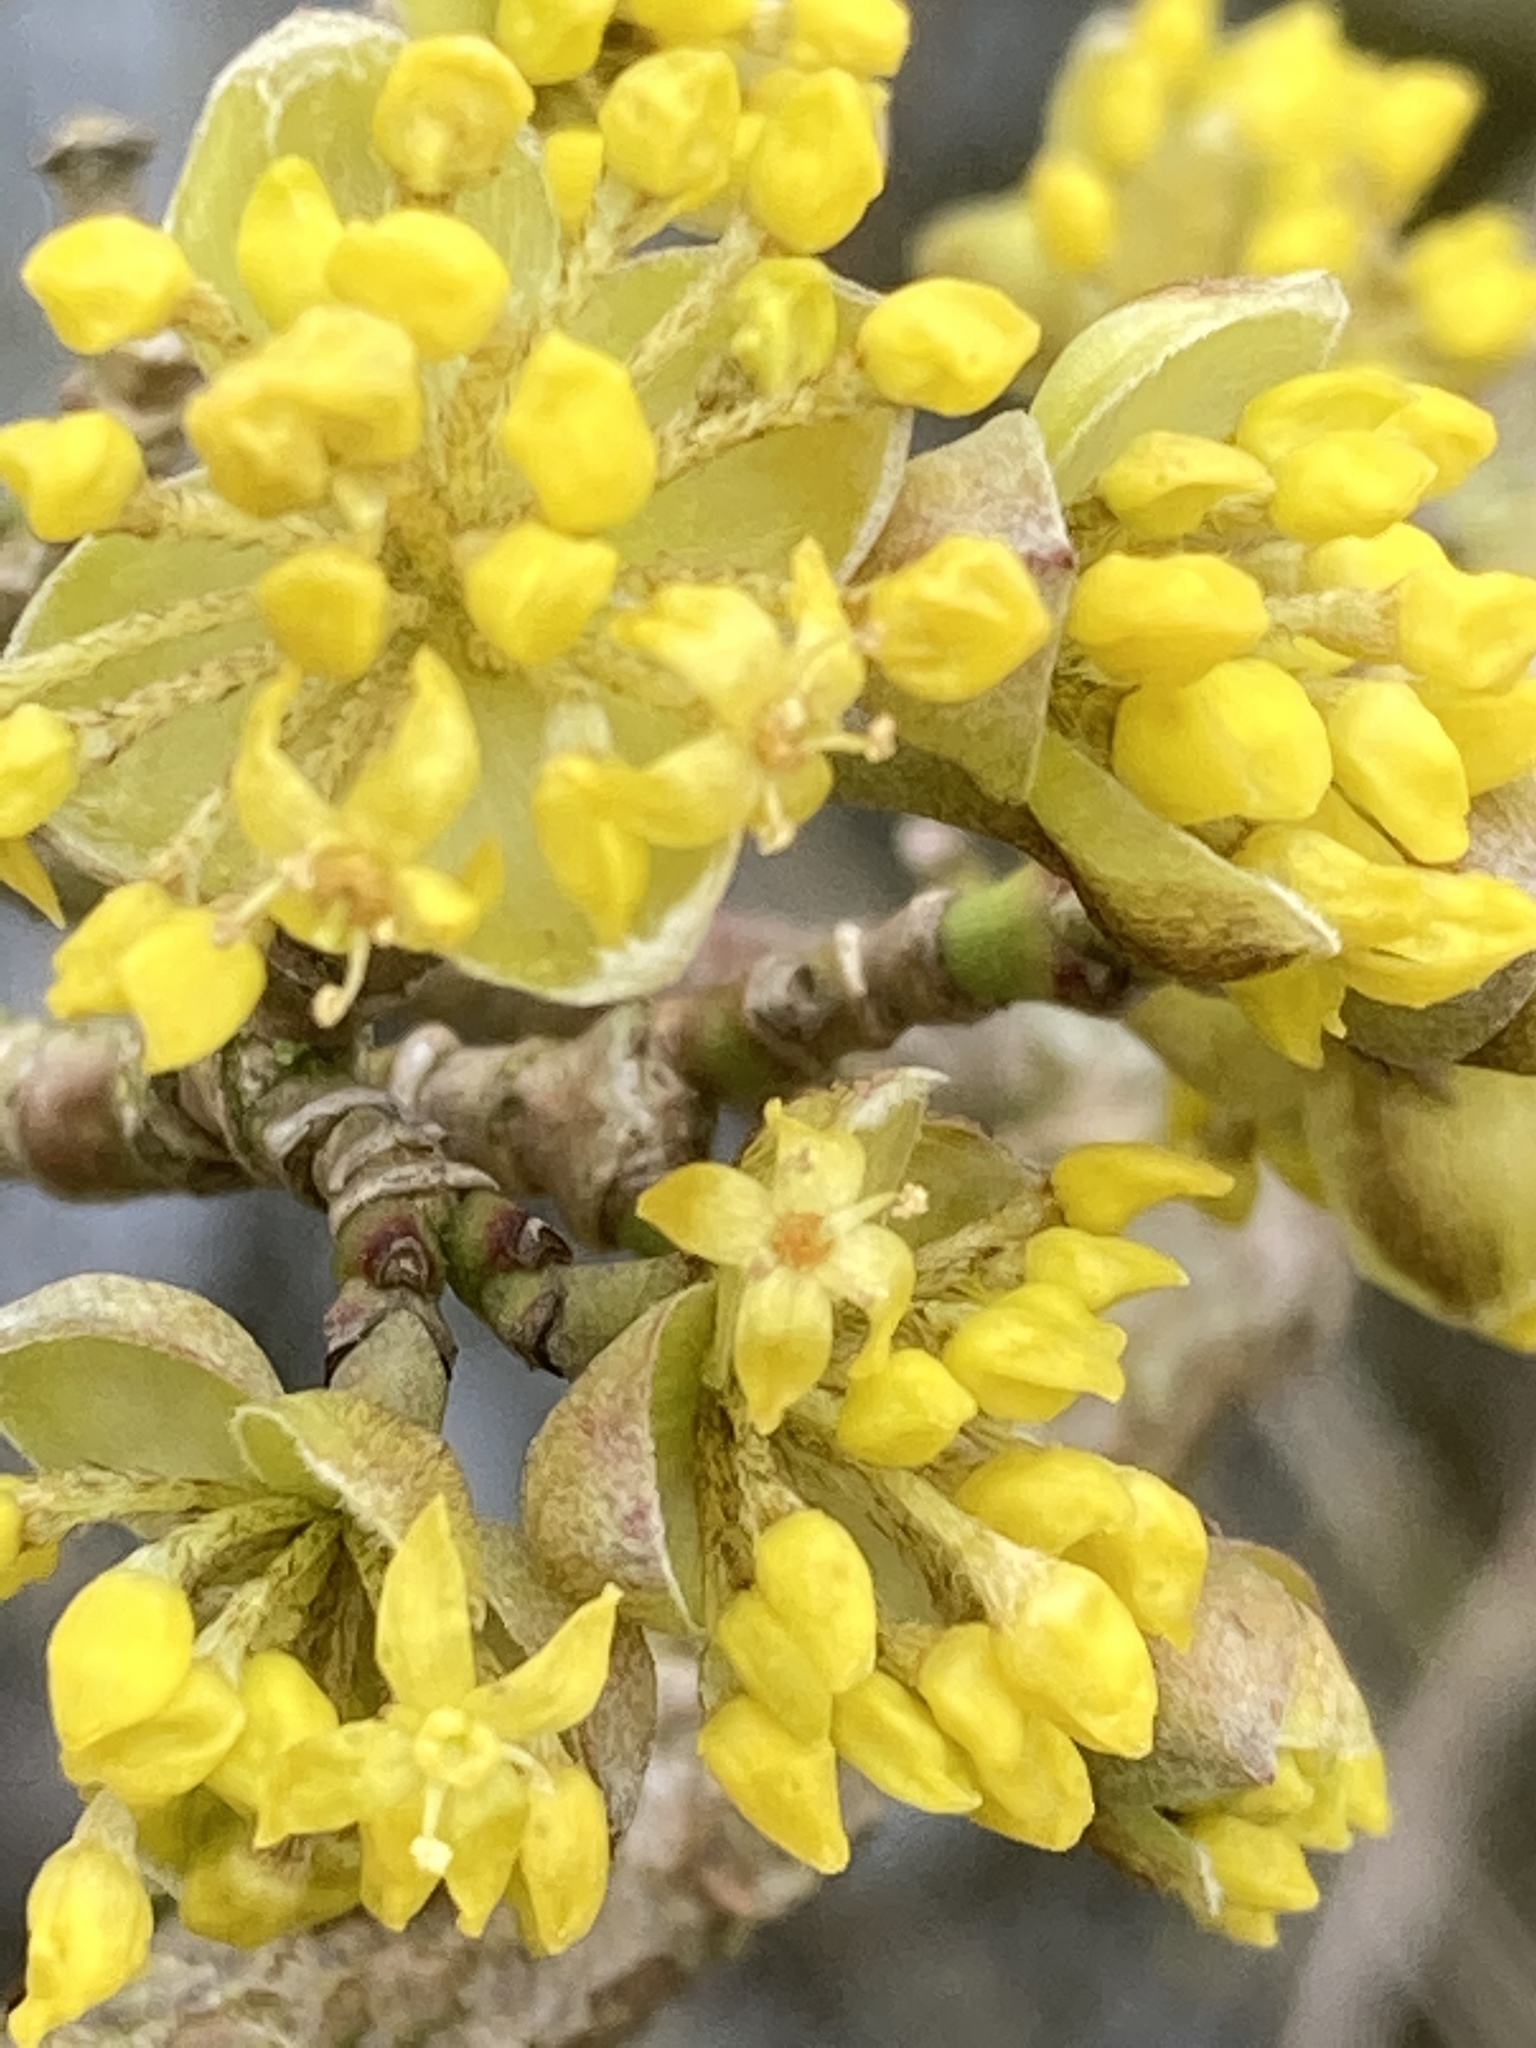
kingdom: Plantae
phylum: Tracheophyta
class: Magnoliopsida
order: Cornales
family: Cornaceae
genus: Cornus
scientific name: Cornus mas
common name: Cornelian-cherry
